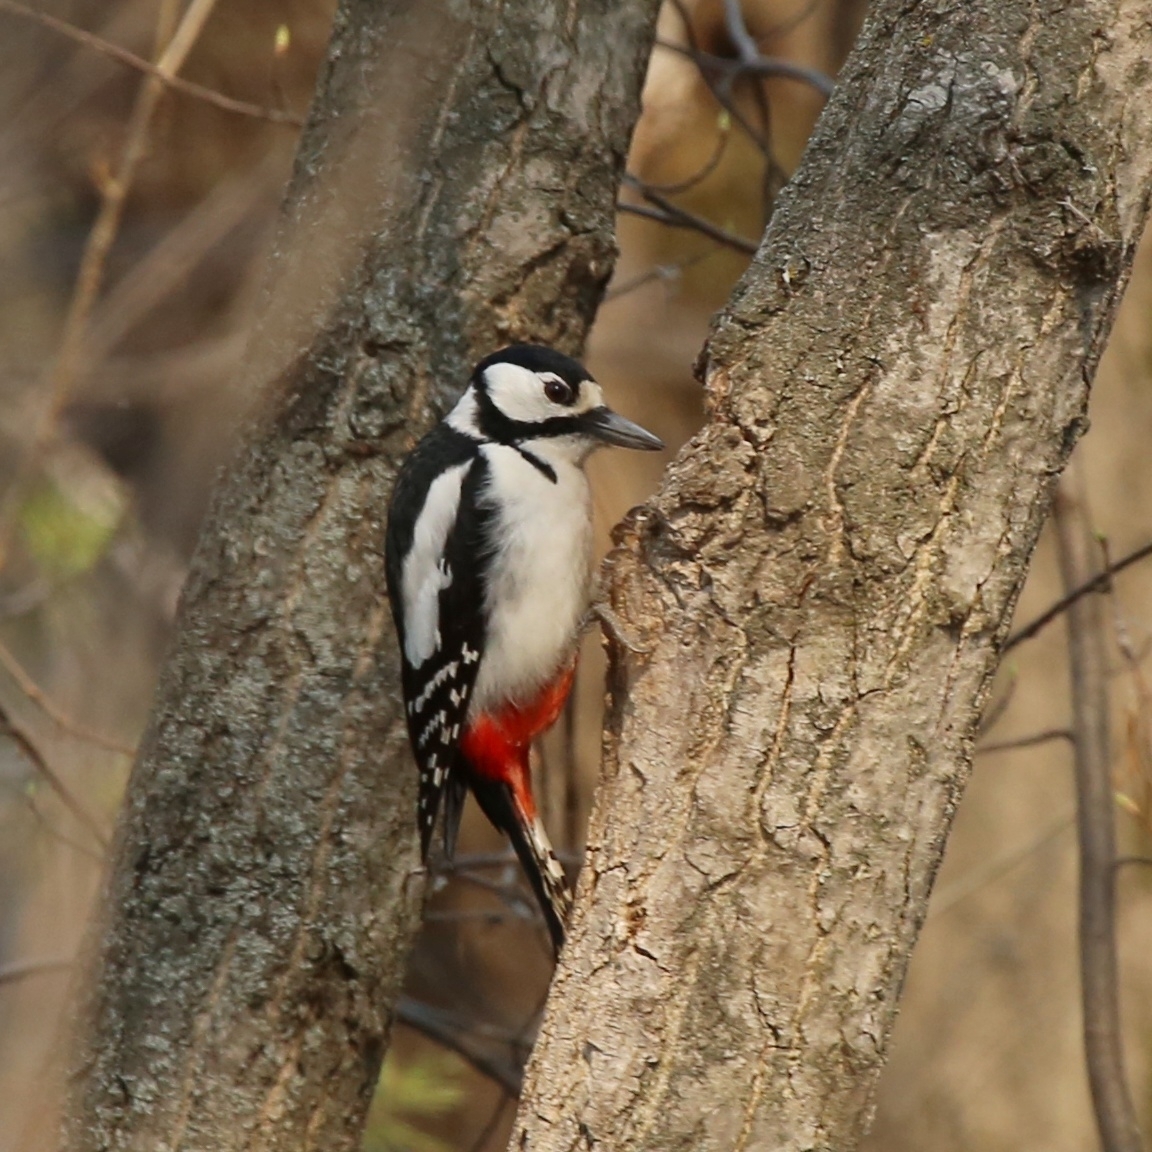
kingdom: Animalia
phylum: Chordata
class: Aves
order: Piciformes
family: Picidae
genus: Dendrocopos
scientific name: Dendrocopos major
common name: Great spotted woodpecker
